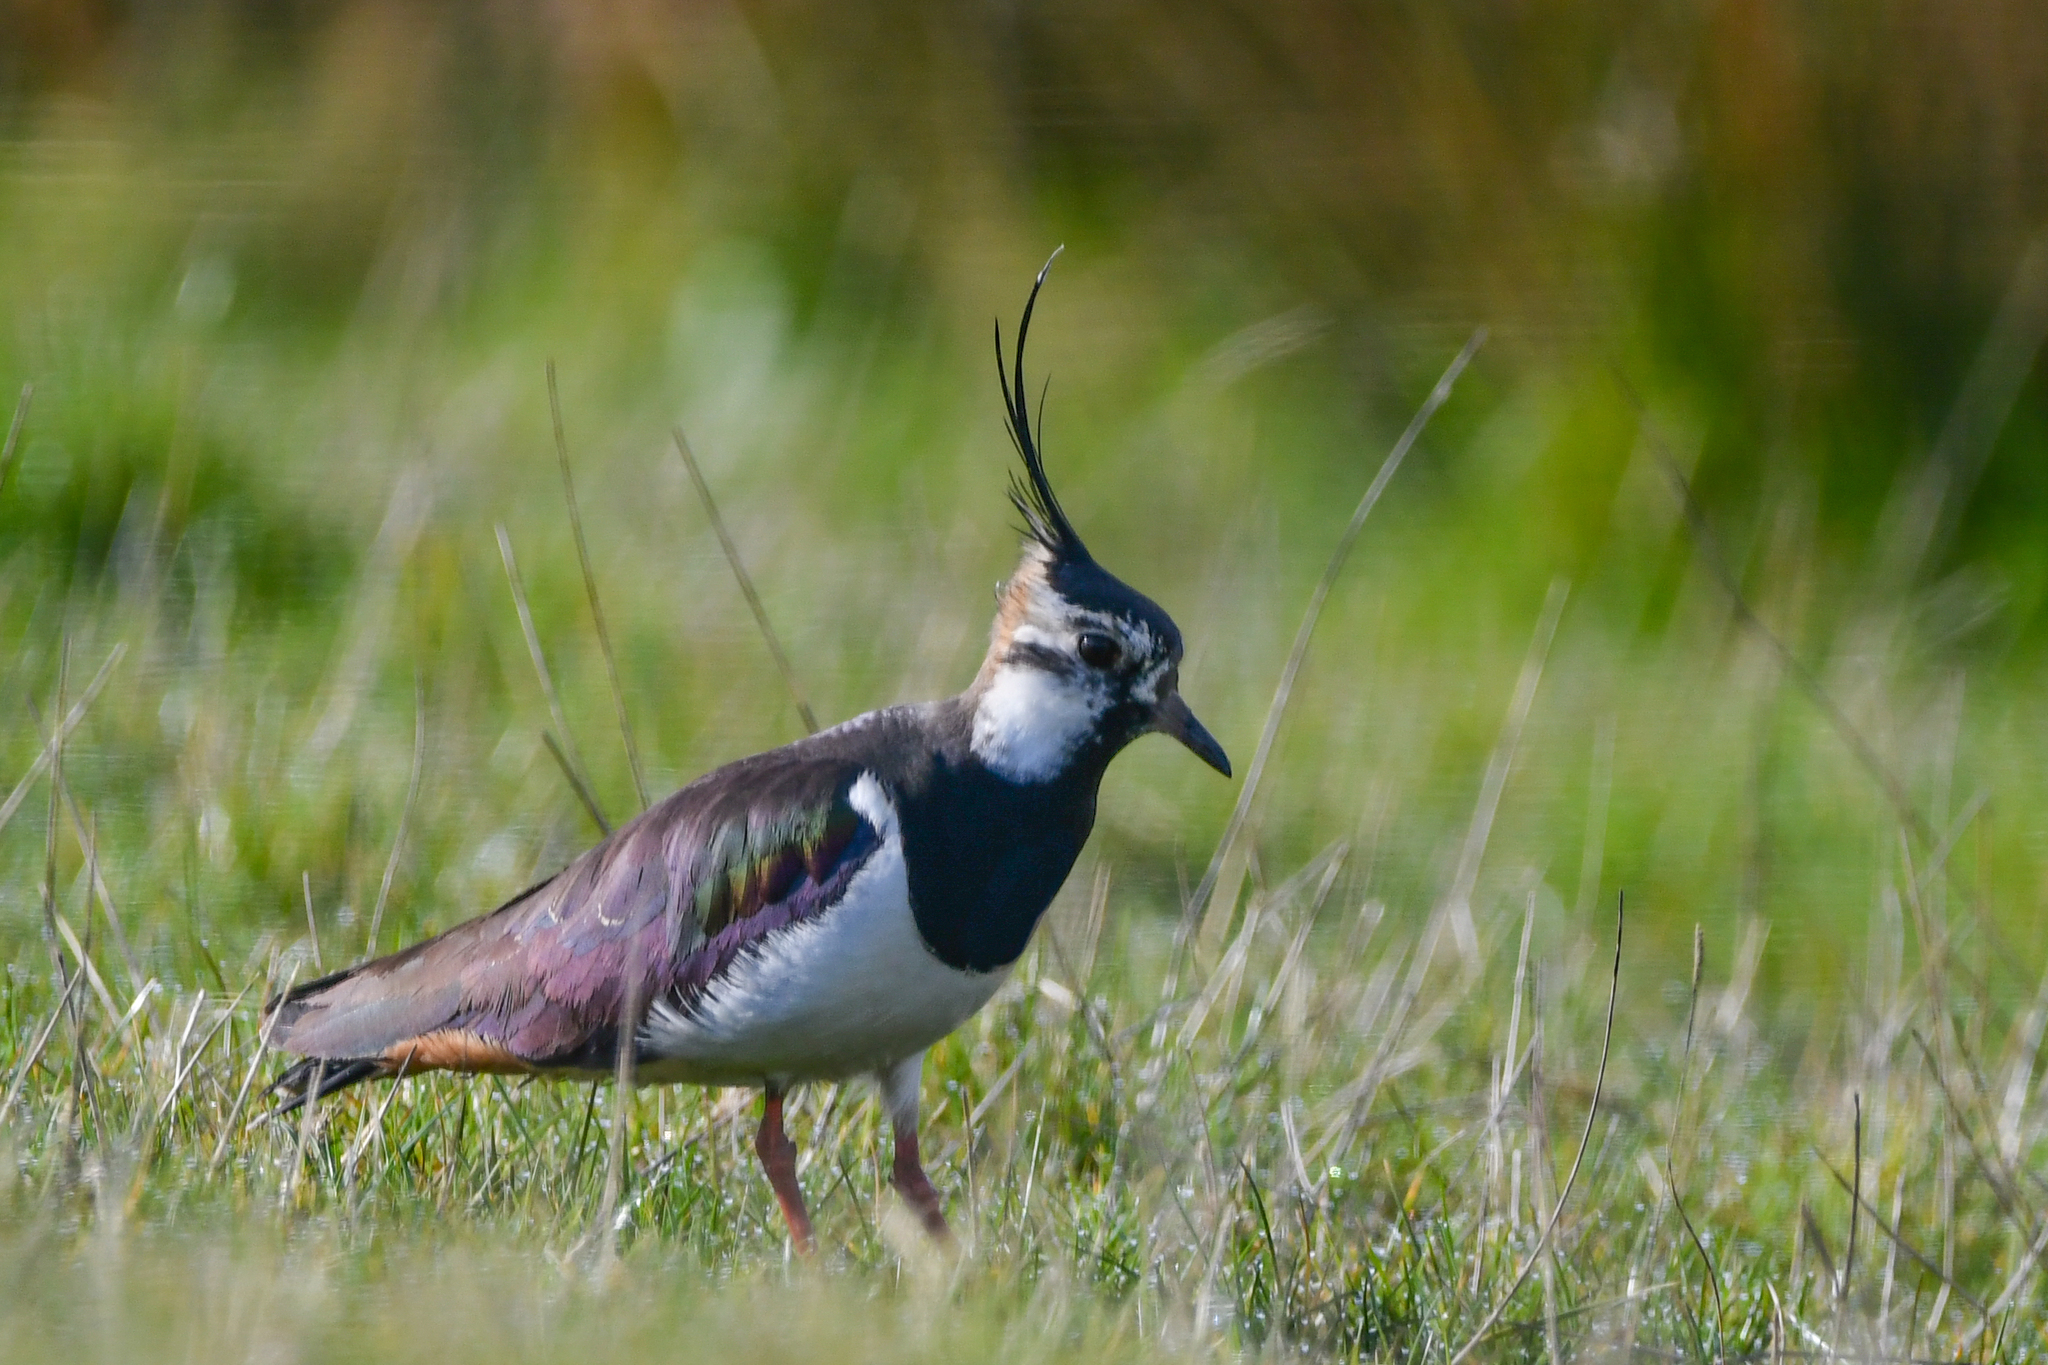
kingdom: Animalia
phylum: Chordata
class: Aves
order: Charadriiformes
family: Charadriidae
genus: Vanellus
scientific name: Vanellus vanellus
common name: Northern lapwing
